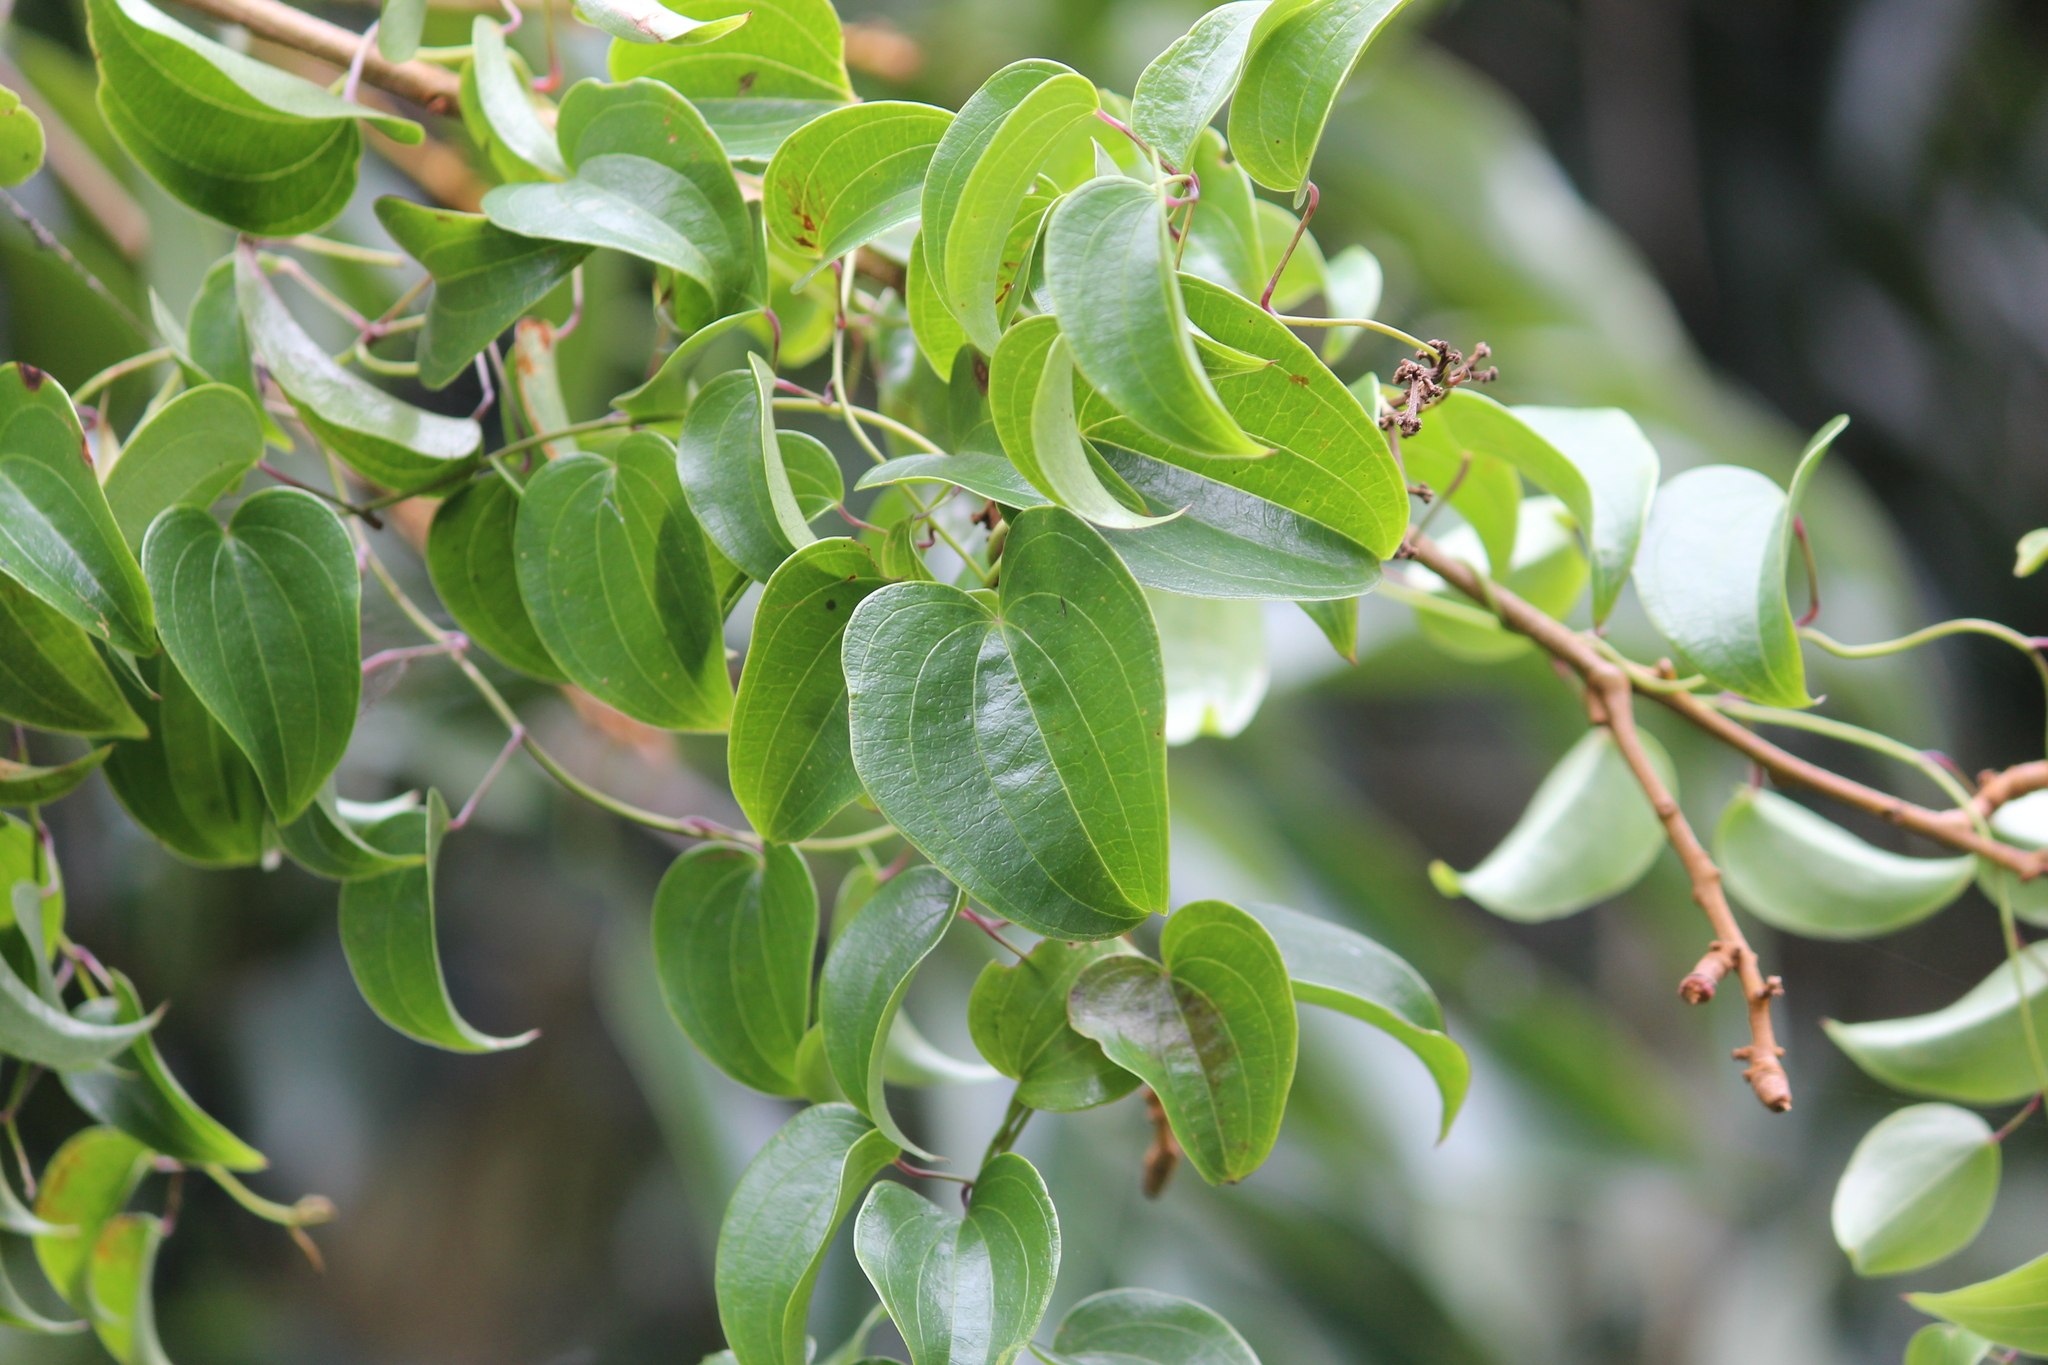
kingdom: Plantae
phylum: Tracheophyta
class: Liliopsida
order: Dioscoreales
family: Dioscoreaceae
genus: Dioscorea
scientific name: Dioscorea cotinifolia
